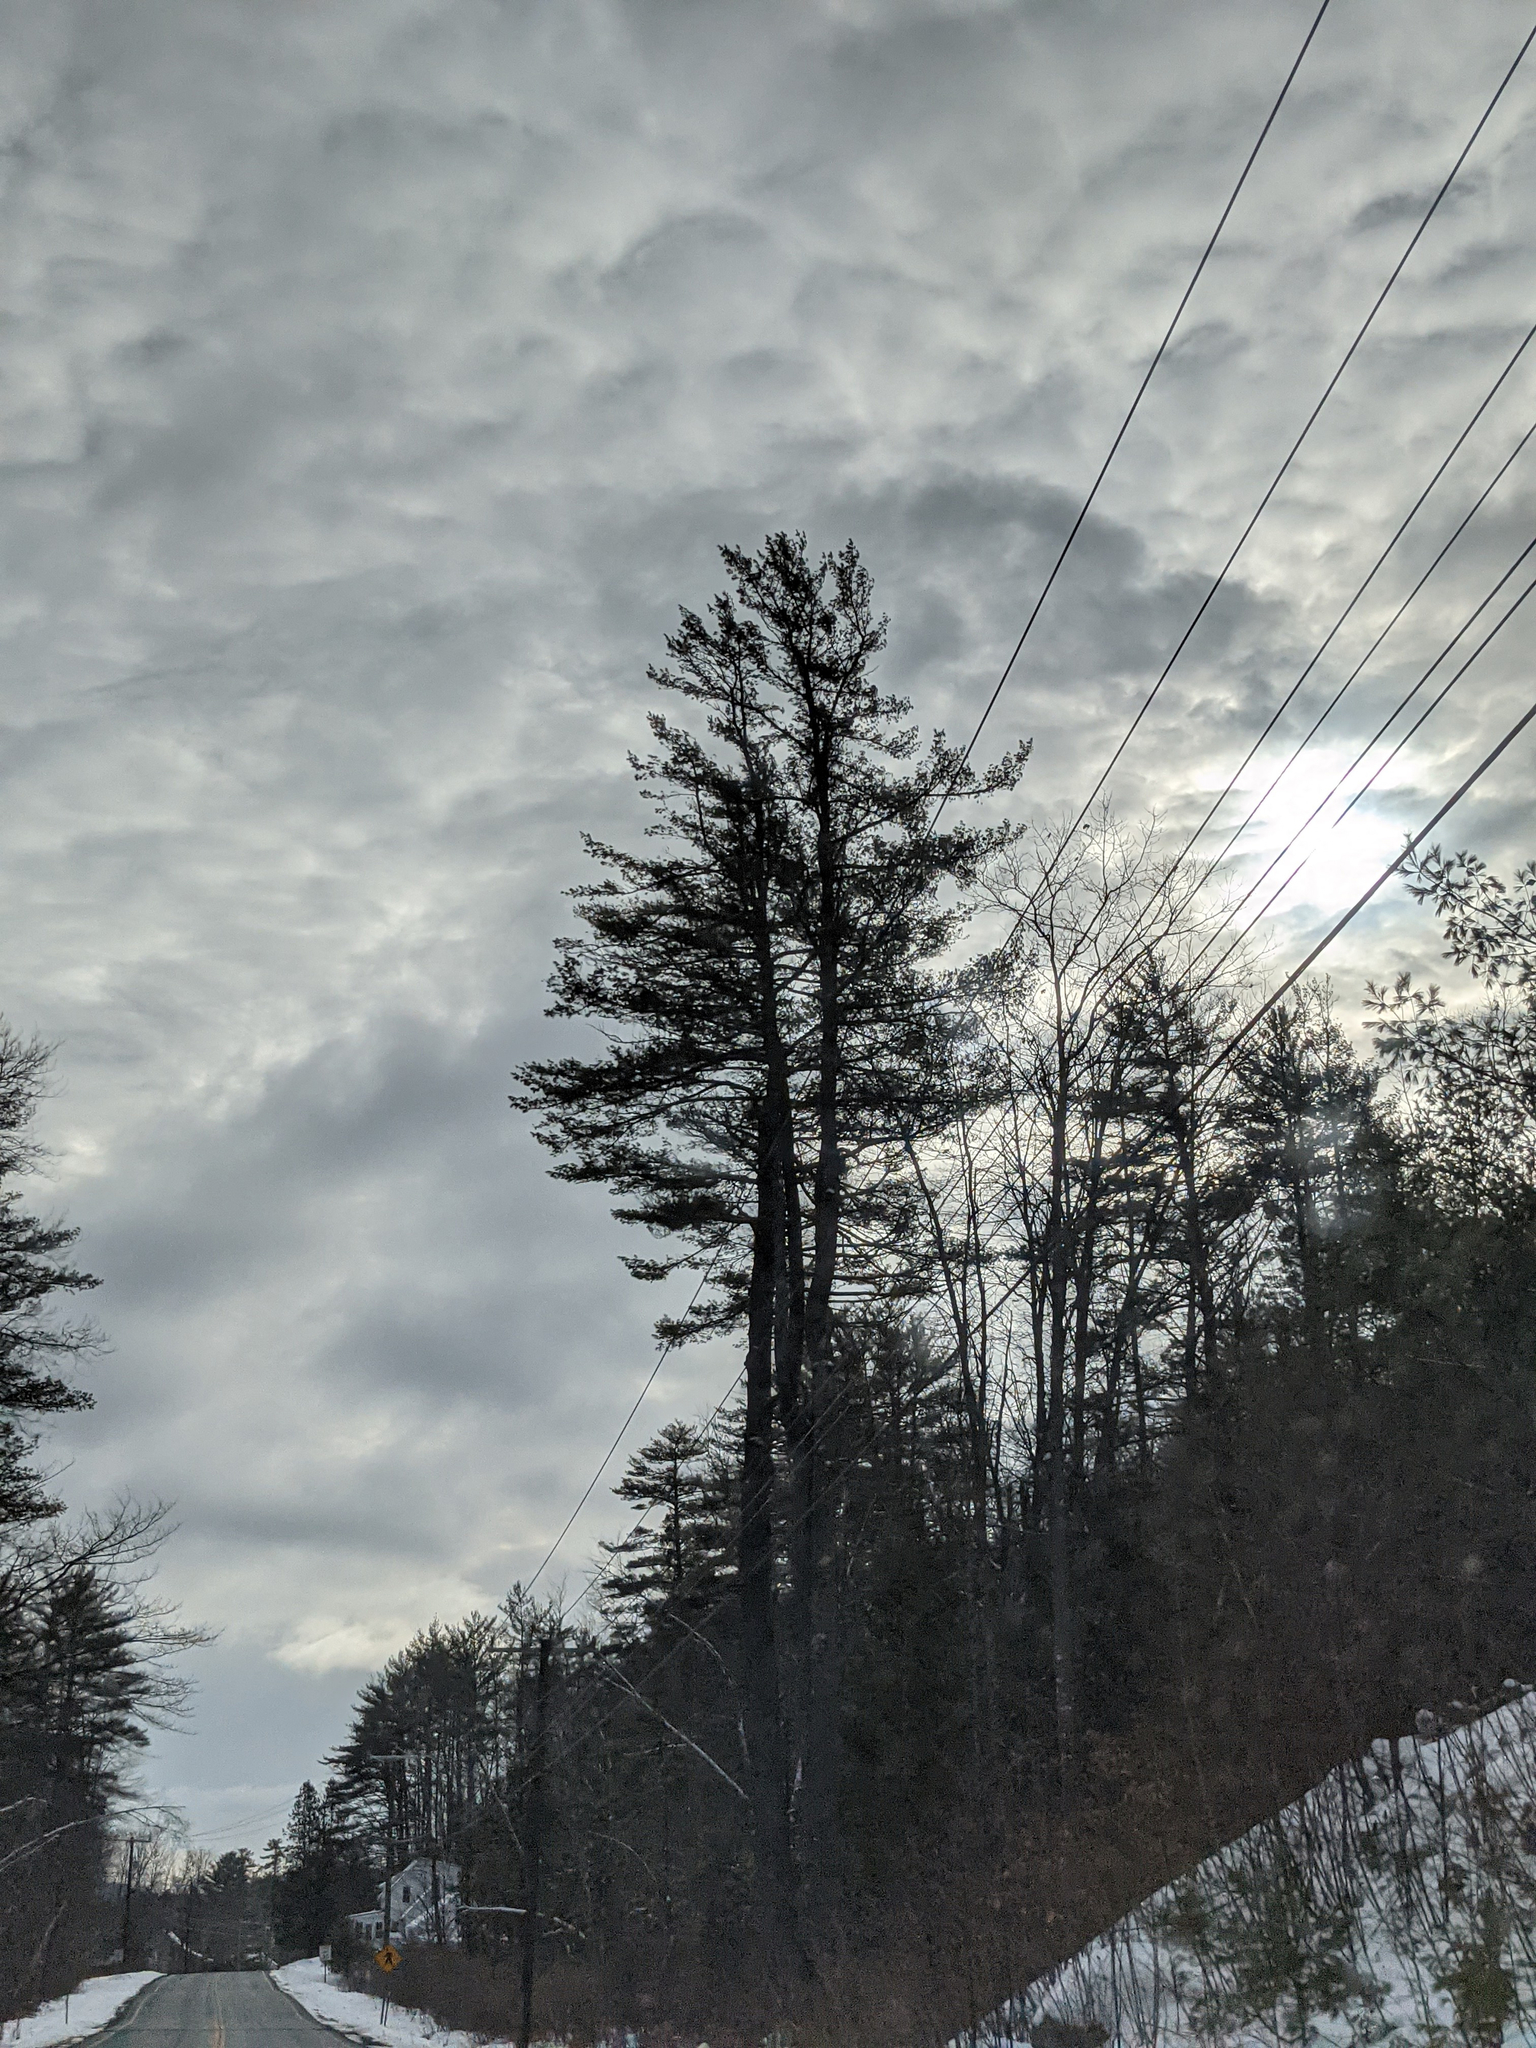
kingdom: Plantae
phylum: Tracheophyta
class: Pinopsida
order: Pinales
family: Pinaceae
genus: Pinus
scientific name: Pinus strobus
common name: Weymouth pine
